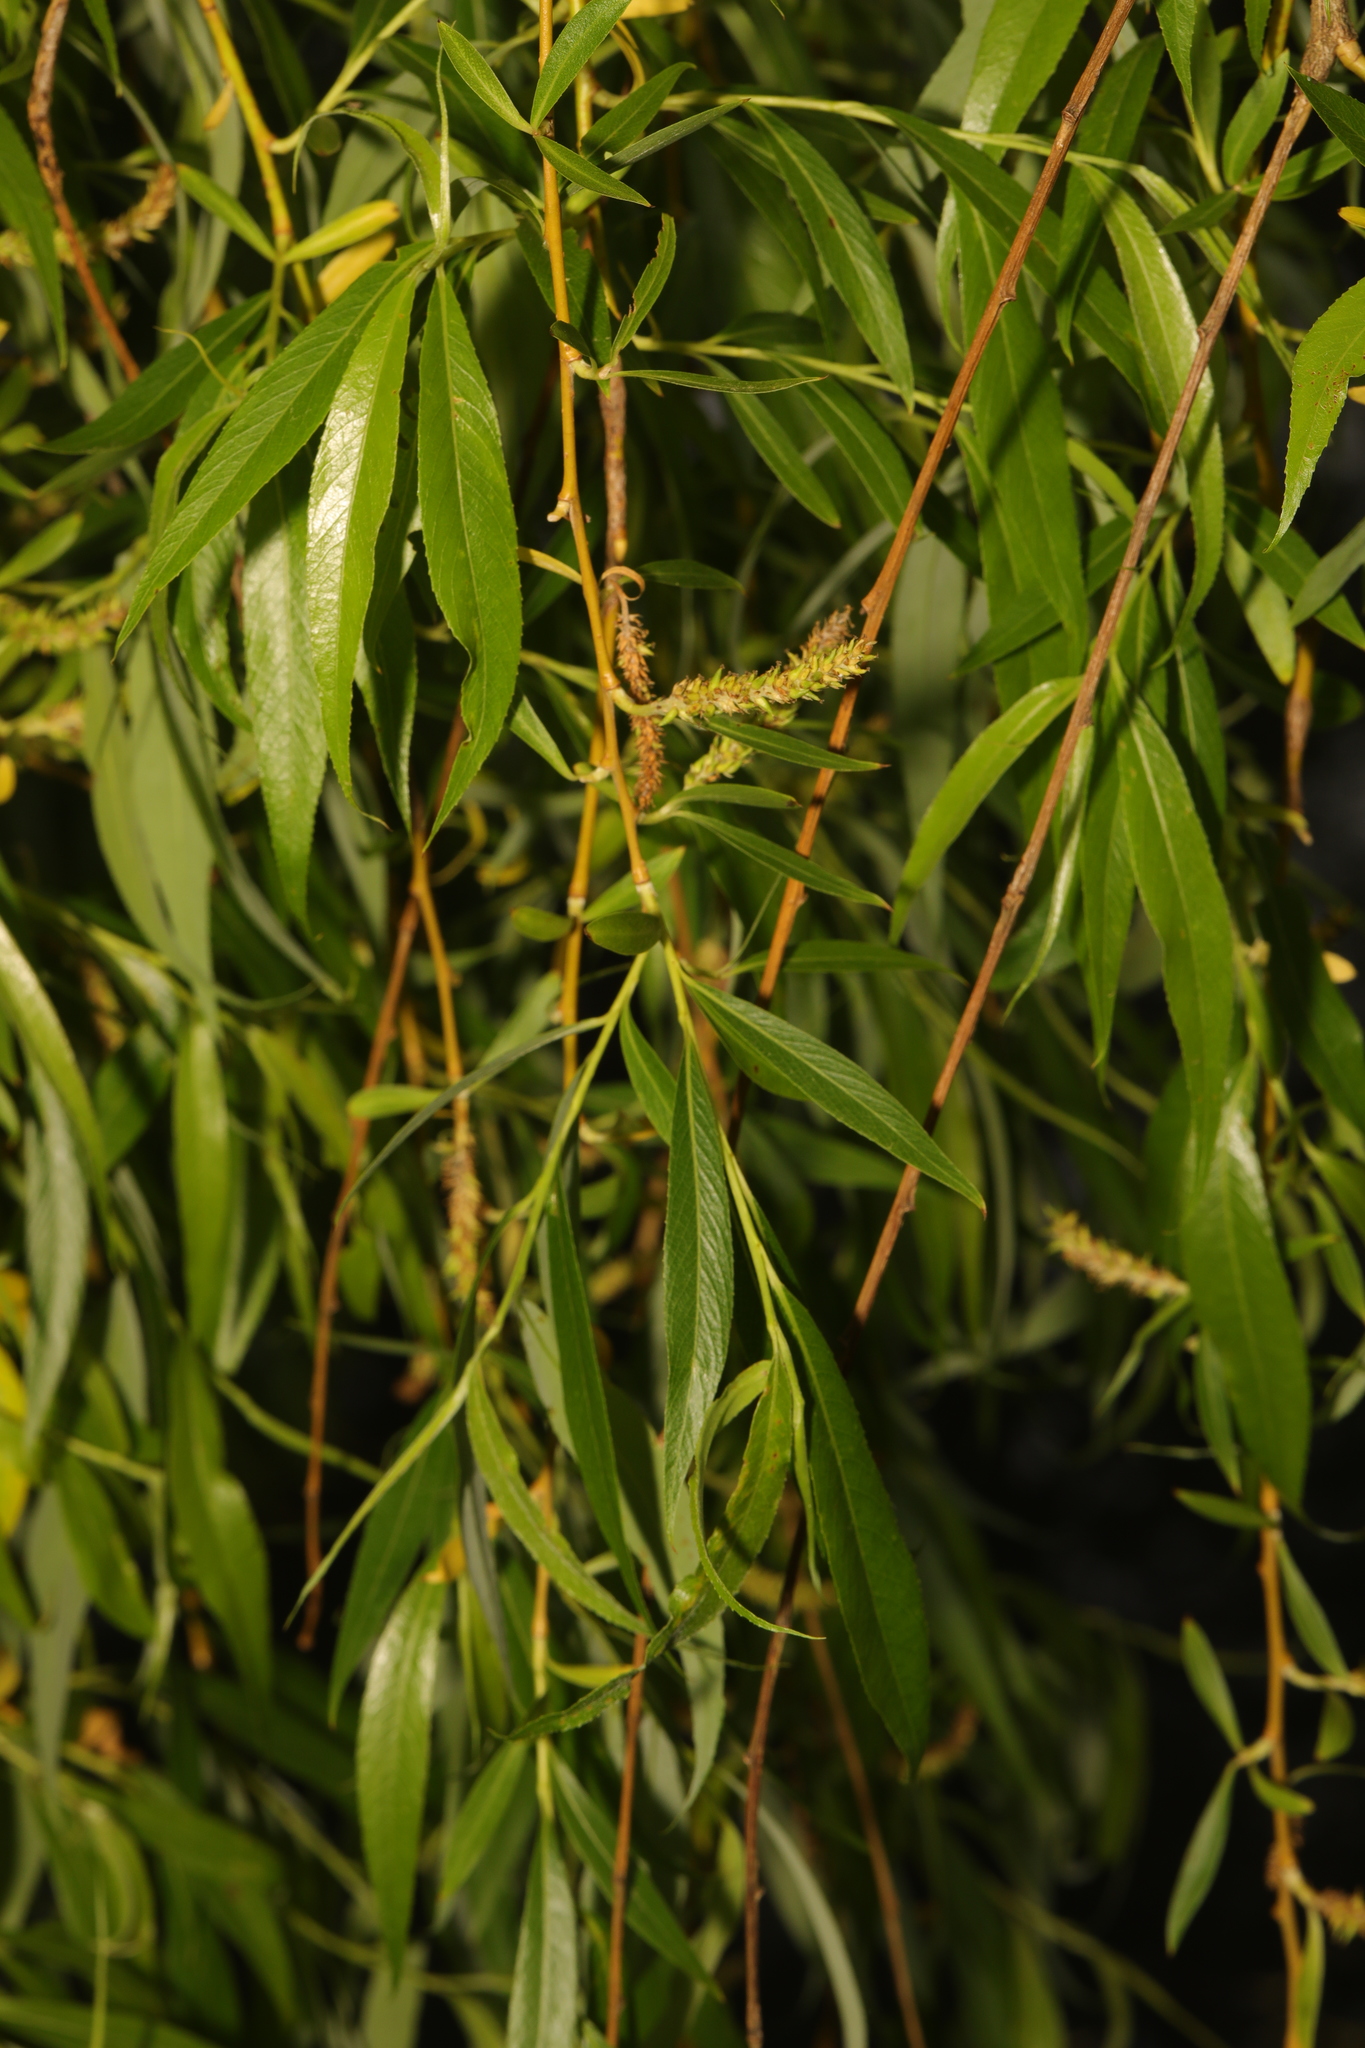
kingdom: Plantae
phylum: Tracheophyta
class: Magnoliopsida
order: Malpighiales
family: Salicaceae
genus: Salix
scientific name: Salix pendulina
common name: Wisconsin weeping willow
